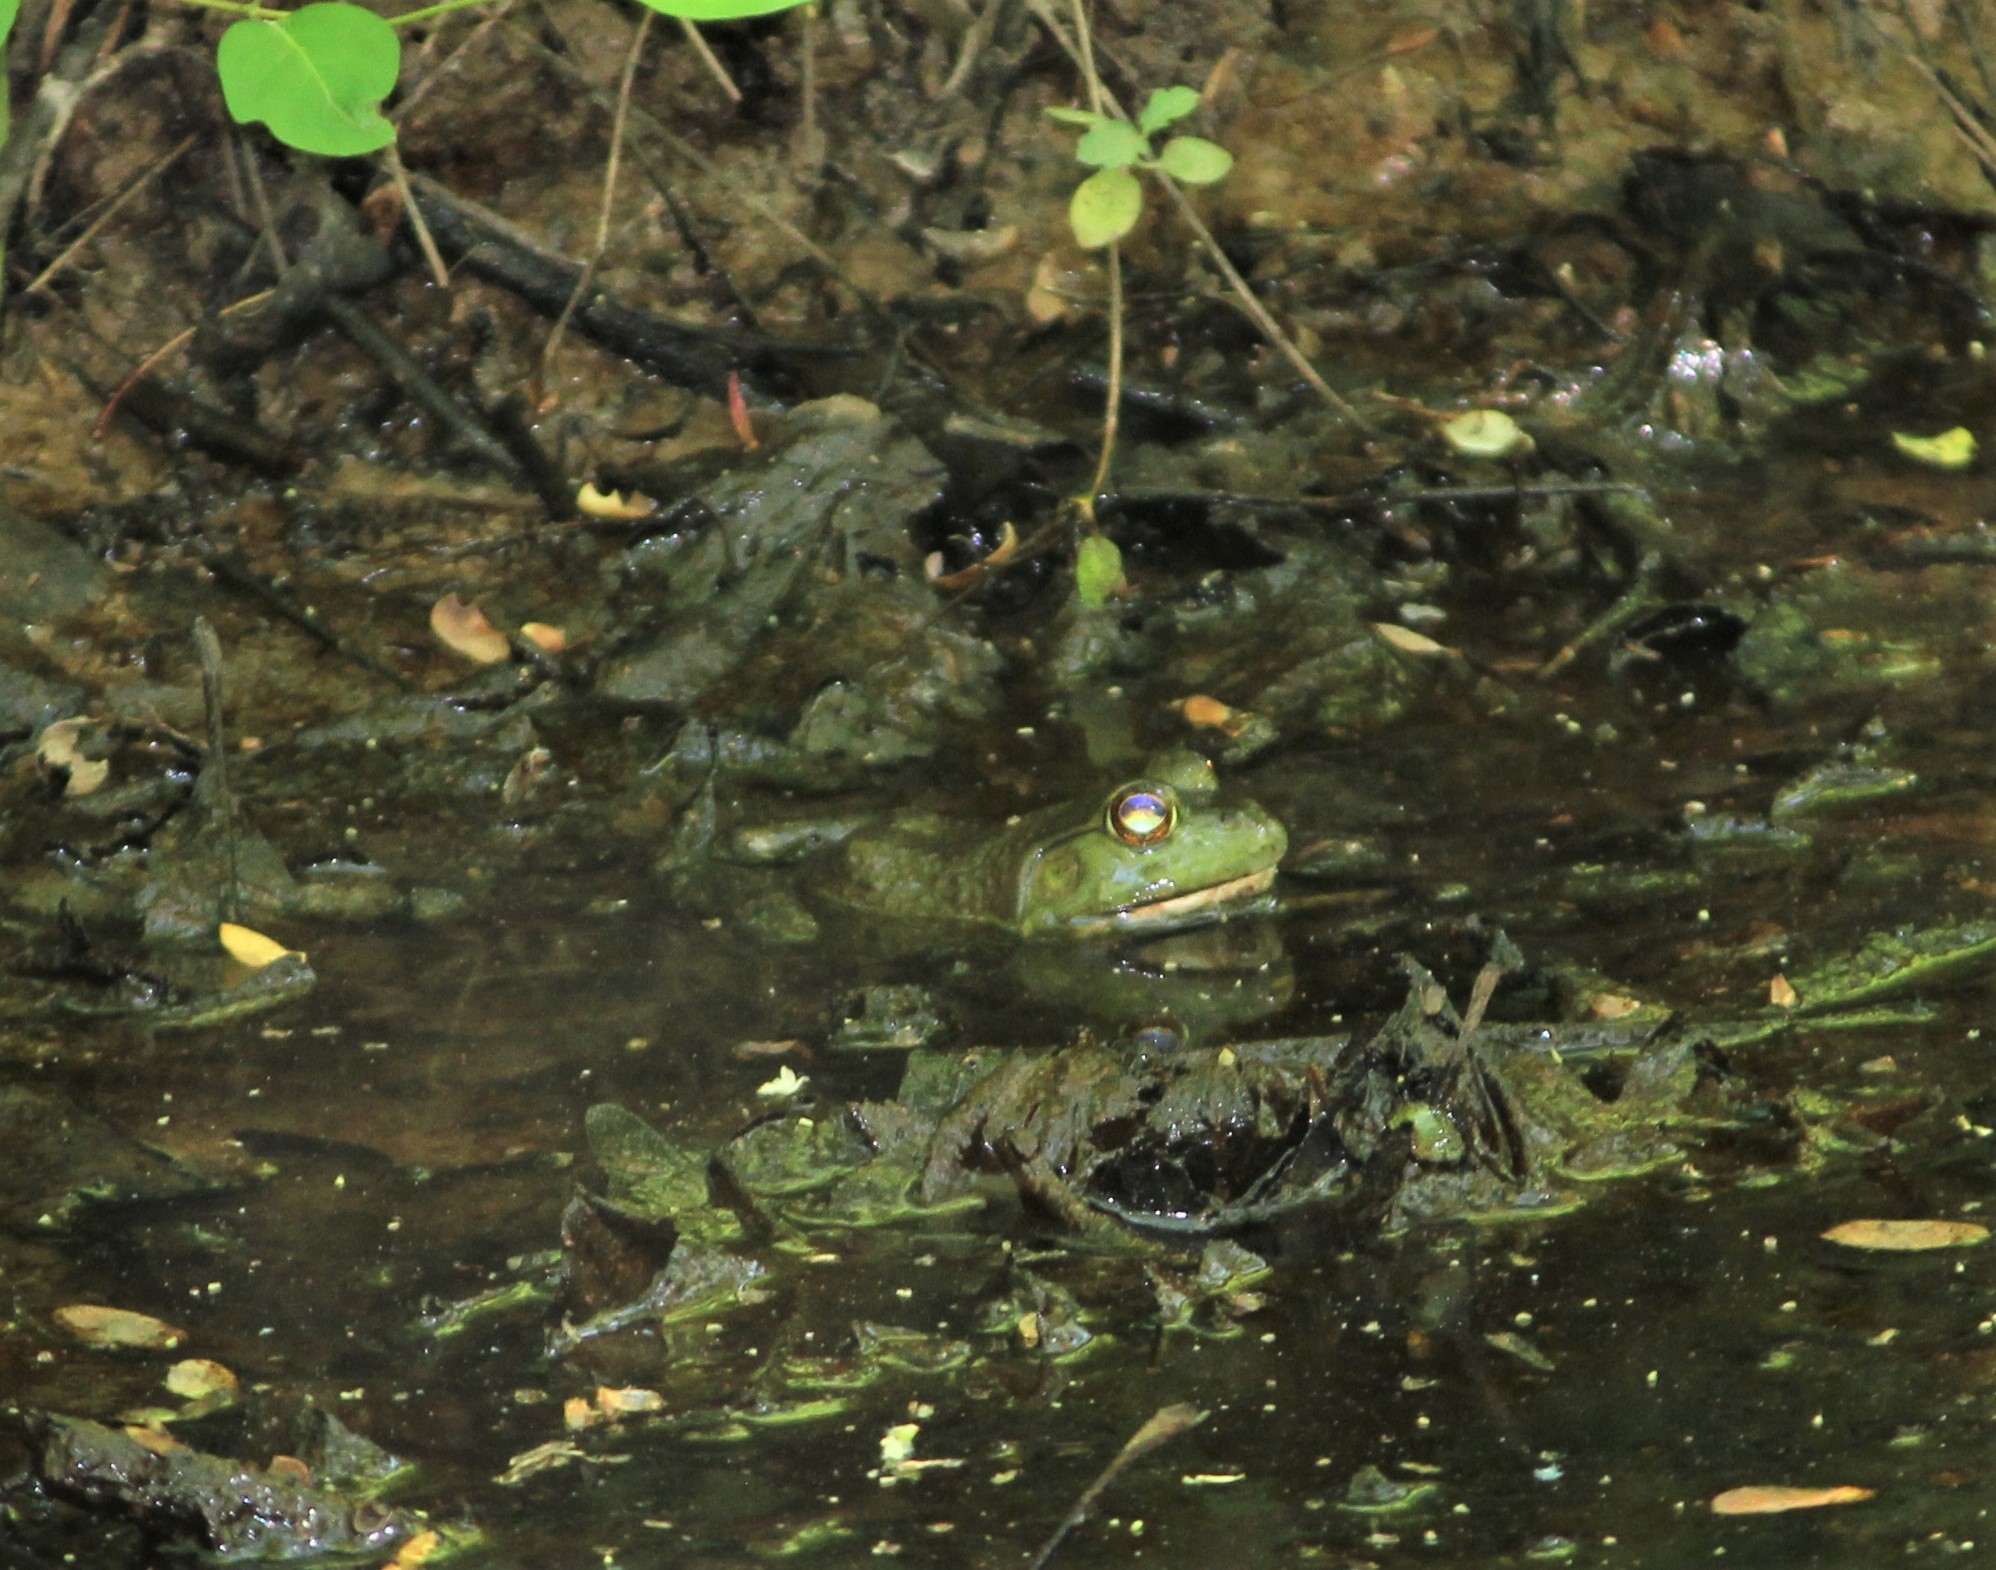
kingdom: Animalia
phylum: Chordata
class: Amphibia
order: Anura
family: Ranidae
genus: Lithobates
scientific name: Lithobates catesbeianus
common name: American bullfrog
